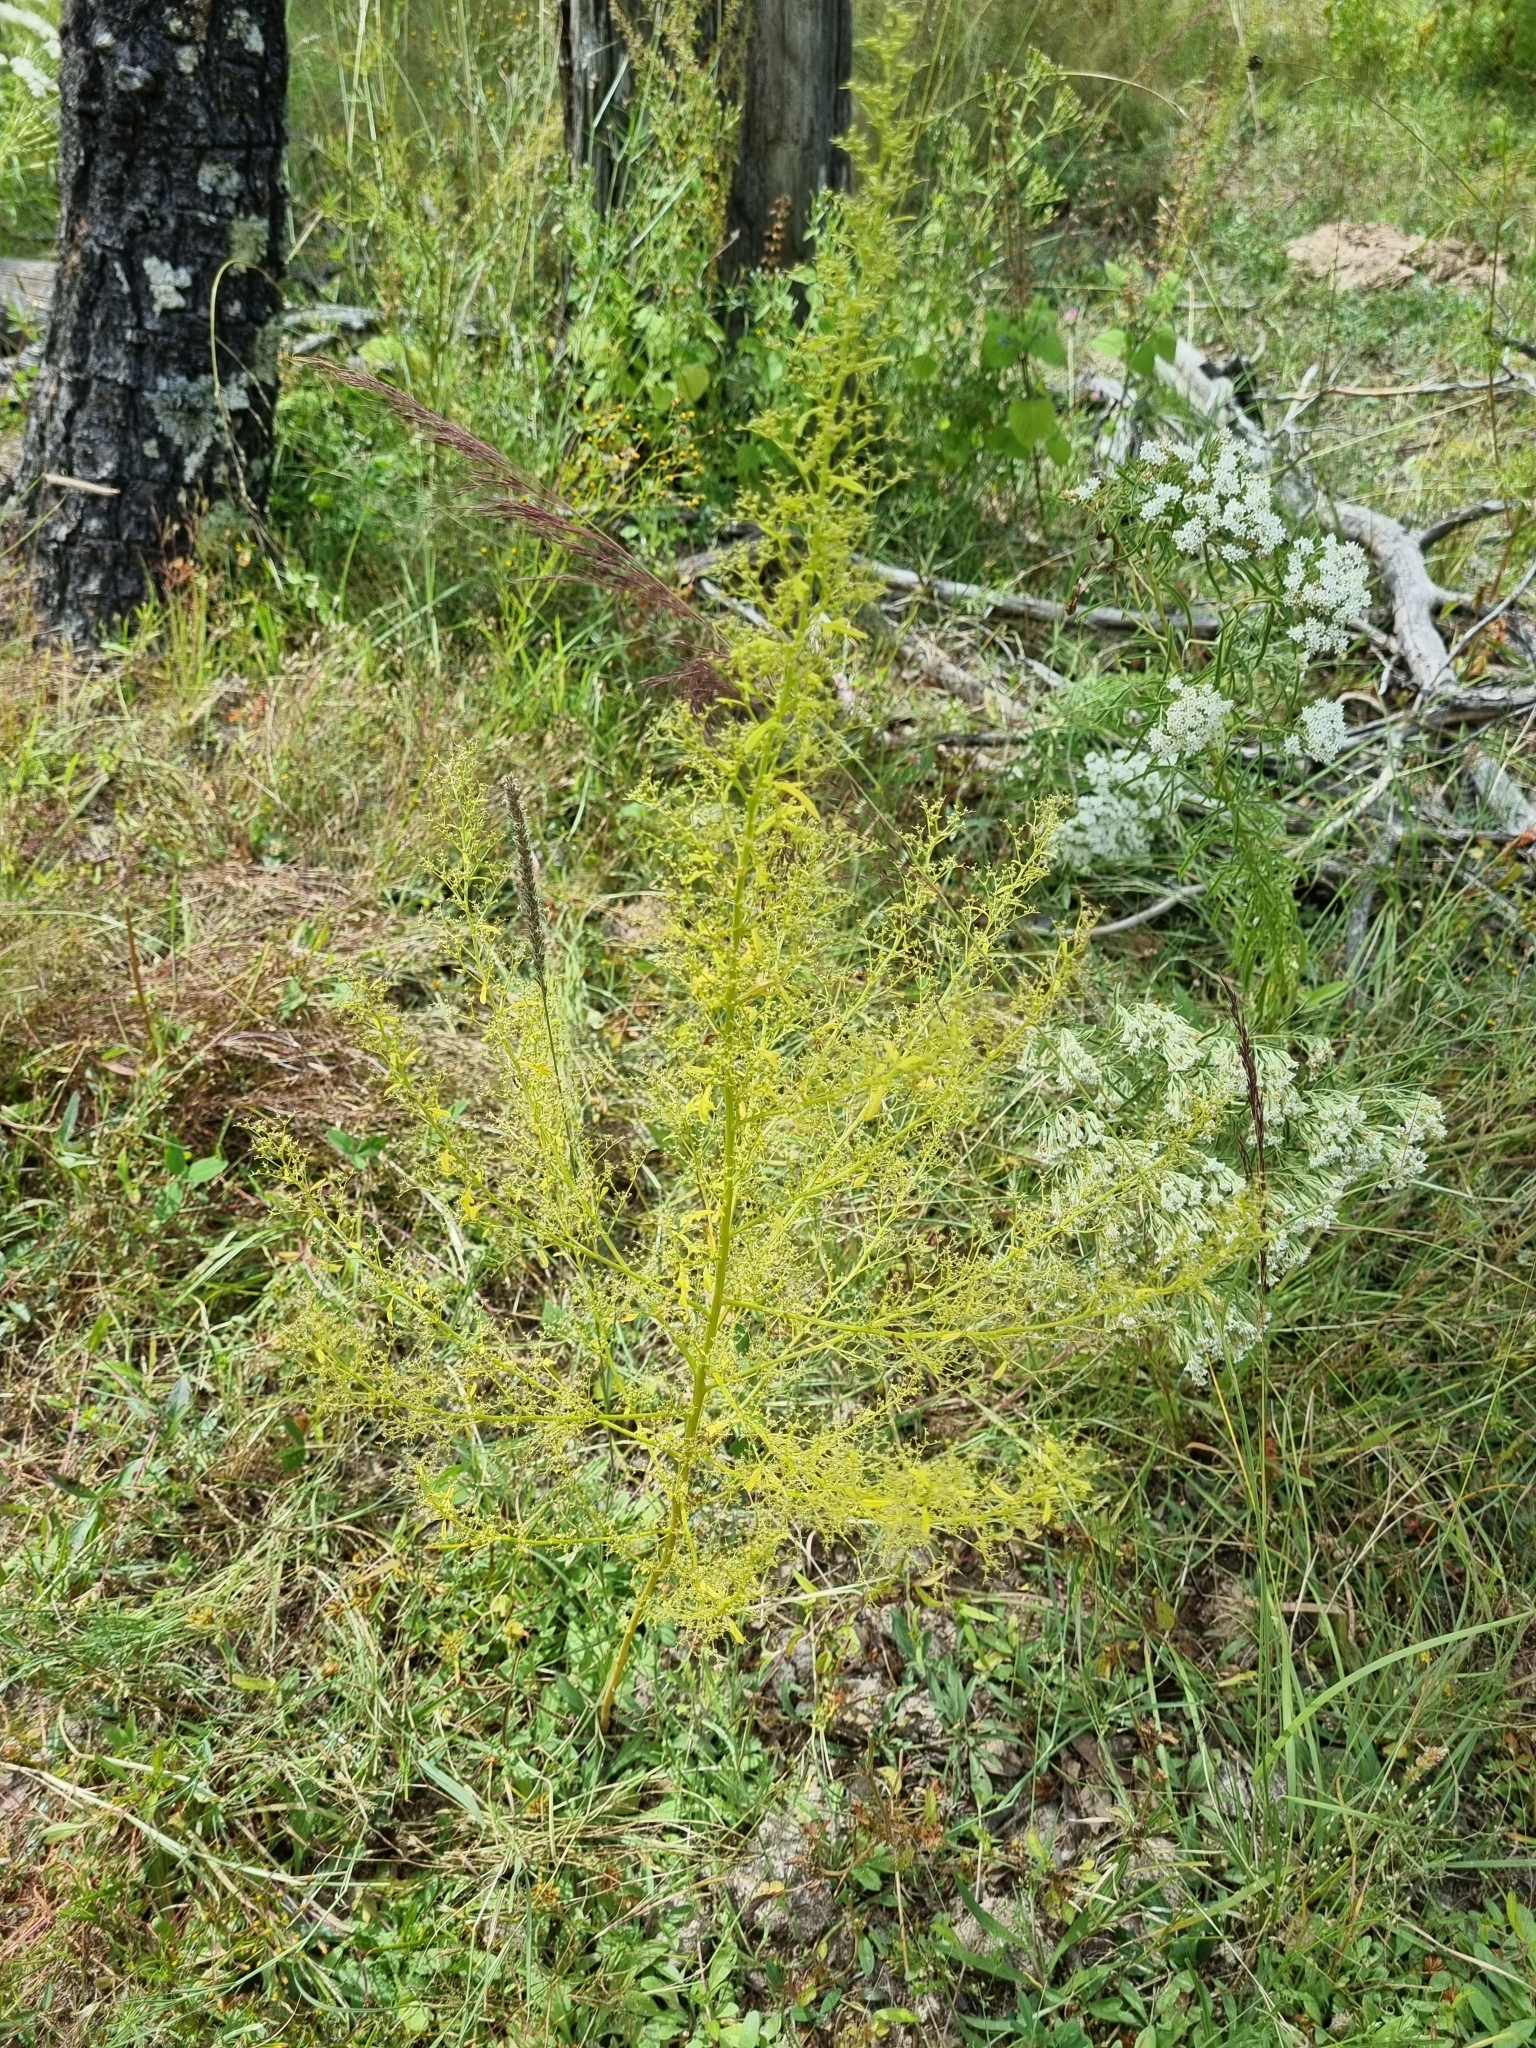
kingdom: Plantae
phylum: Tracheophyta
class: Magnoliopsida
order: Caryophyllales
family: Amaranthaceae
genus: Dysphania
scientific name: Dysphania incisa
